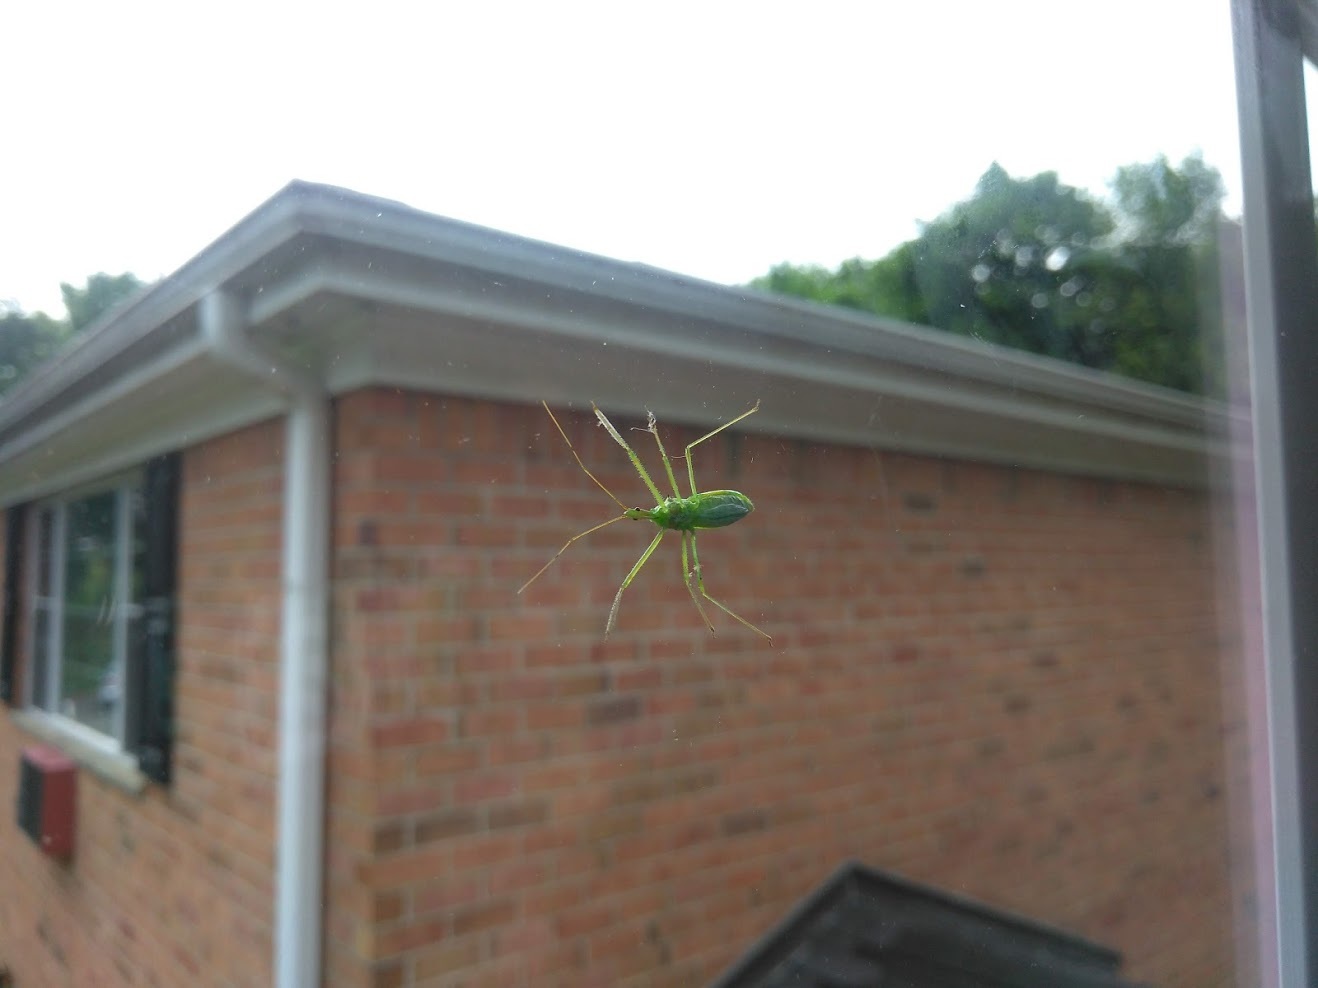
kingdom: Animalia
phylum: Arthropoda
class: Insecta
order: Hemiptera
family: Reduviidae
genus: Zelus
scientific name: Zelus luridus
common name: Pale green assassin bug
